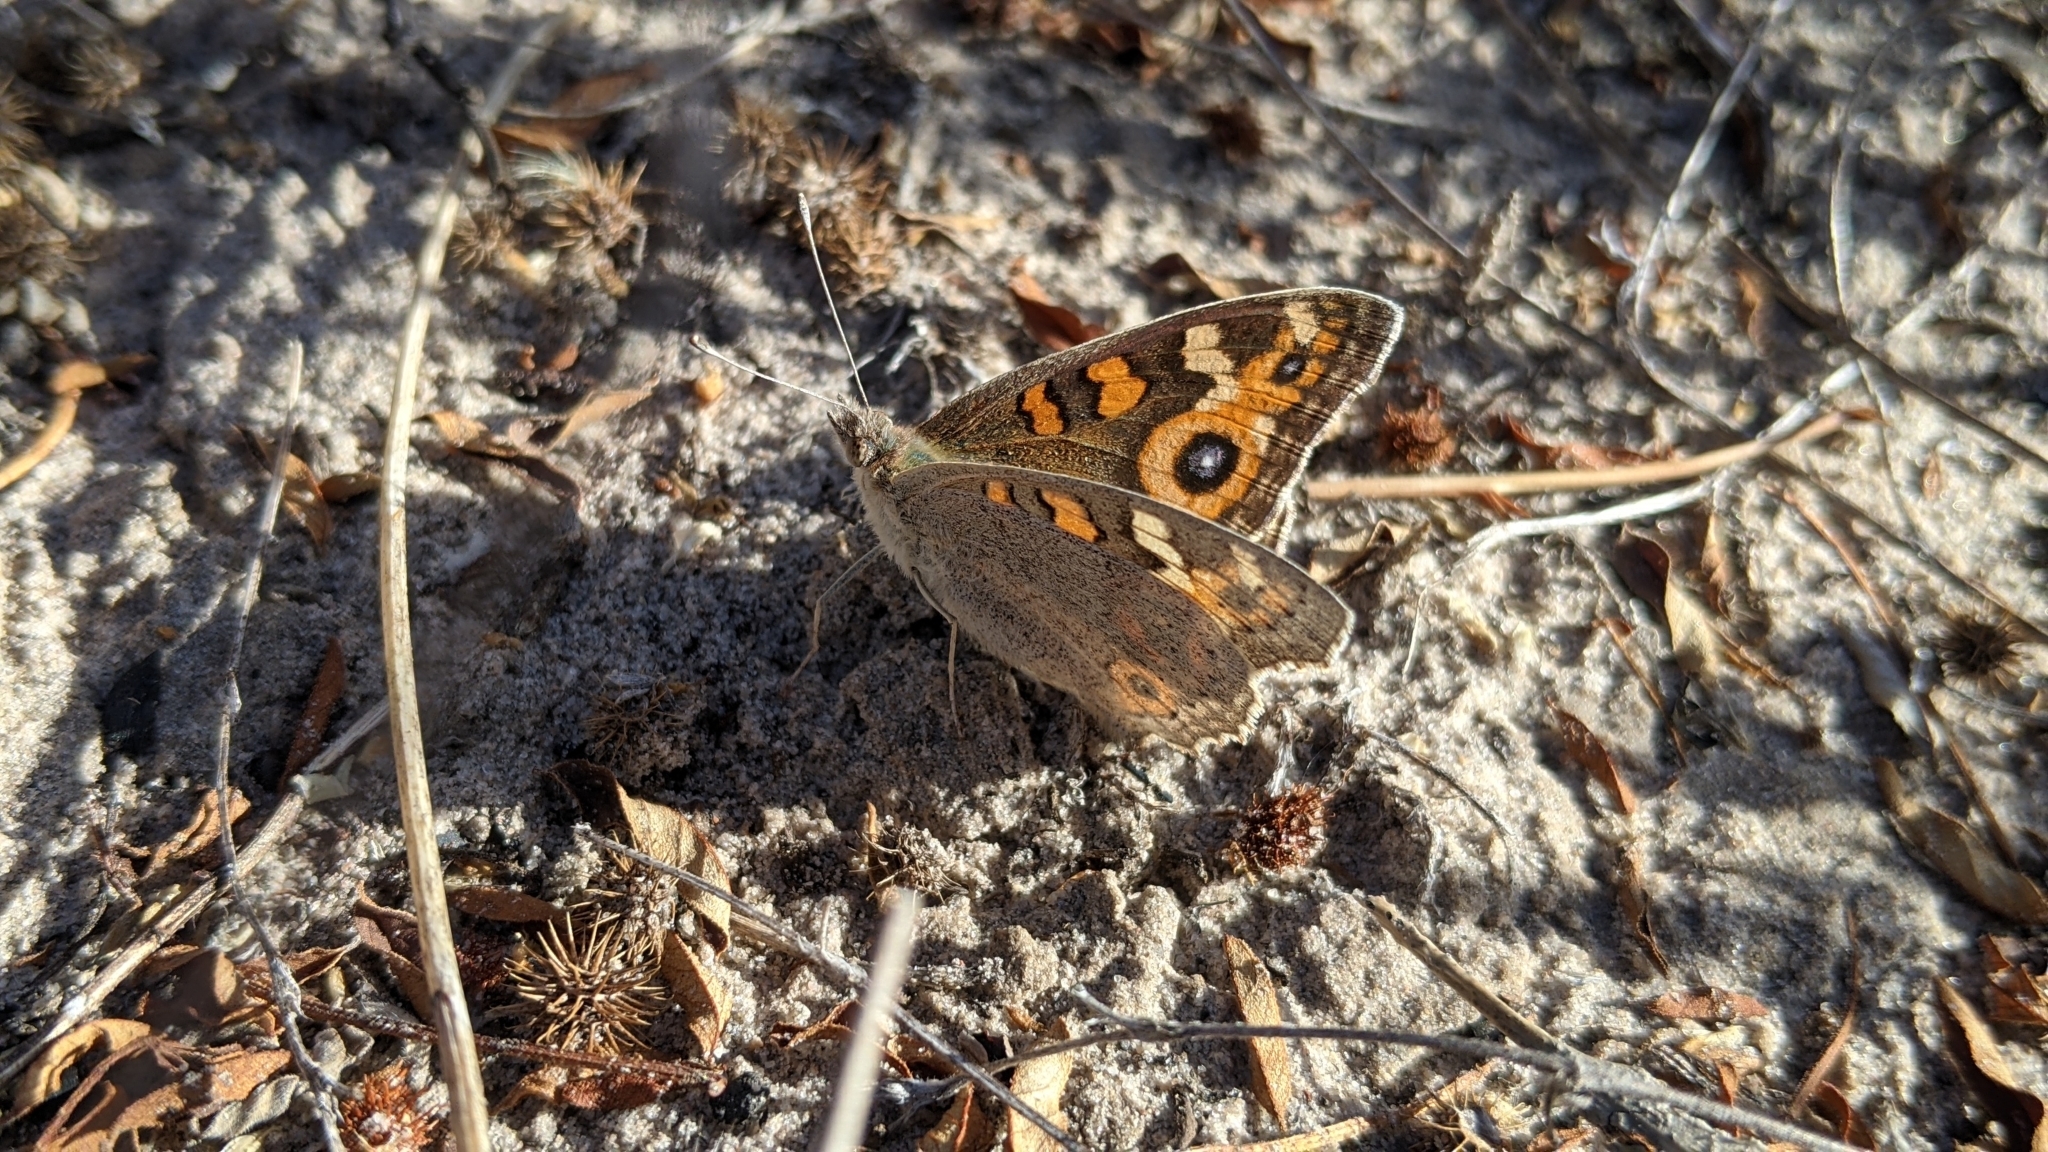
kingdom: Animalia
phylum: Arthropoda
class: Insecta
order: Lepidoptera
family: Nymphalidae
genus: Junonia
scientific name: Junonia villida
